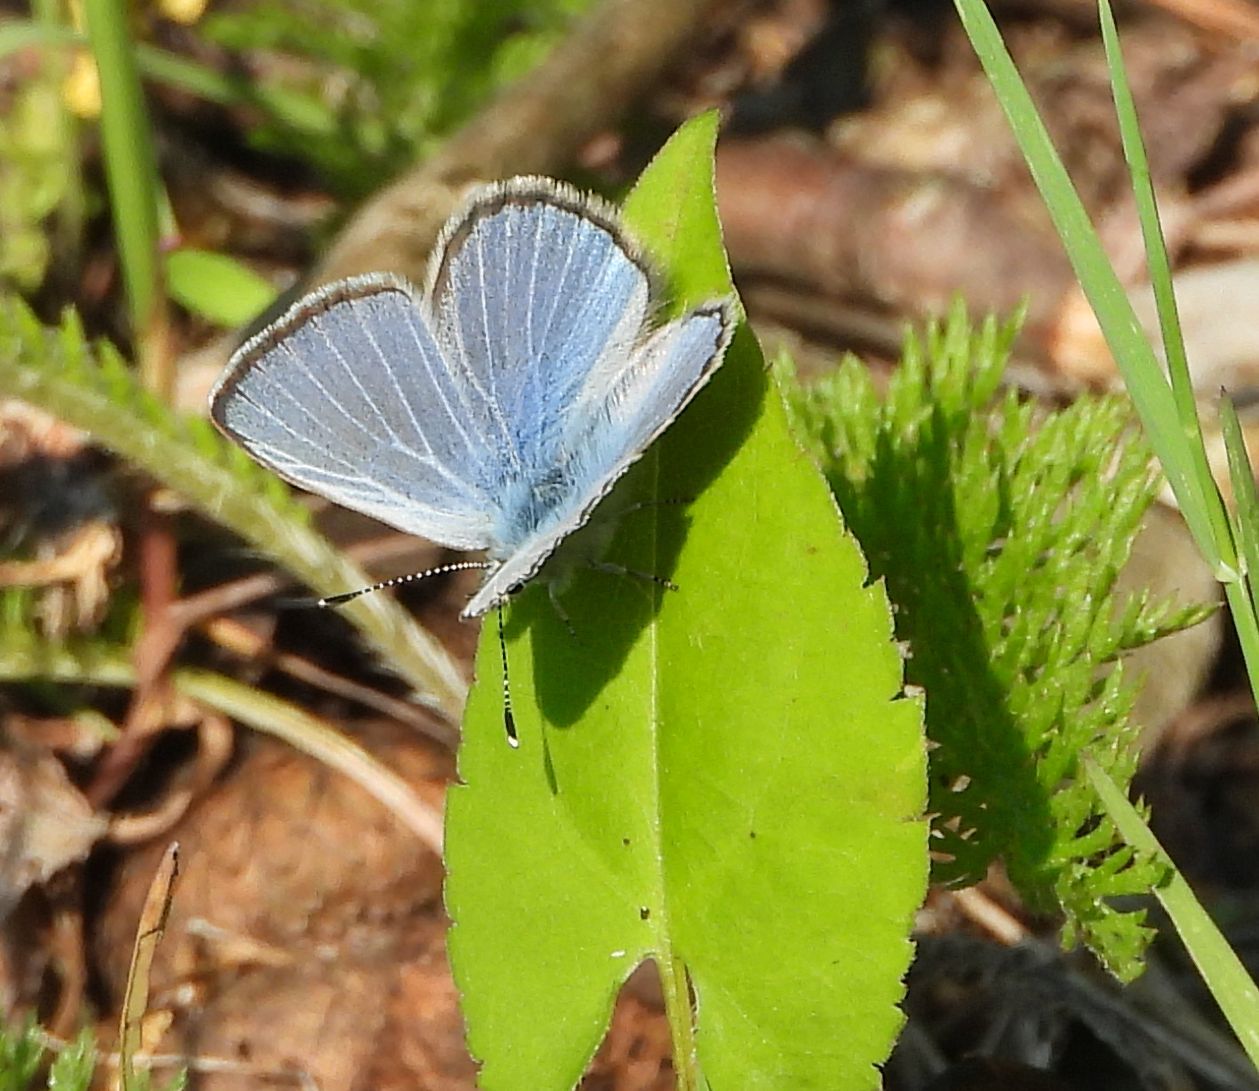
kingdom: Animalia
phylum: Arthropoda
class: Insecta
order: Lepidoptera
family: Lycaenidae
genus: Glaucopsyche
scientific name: Glaucopsyche lygdamus
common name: Silvery blue
